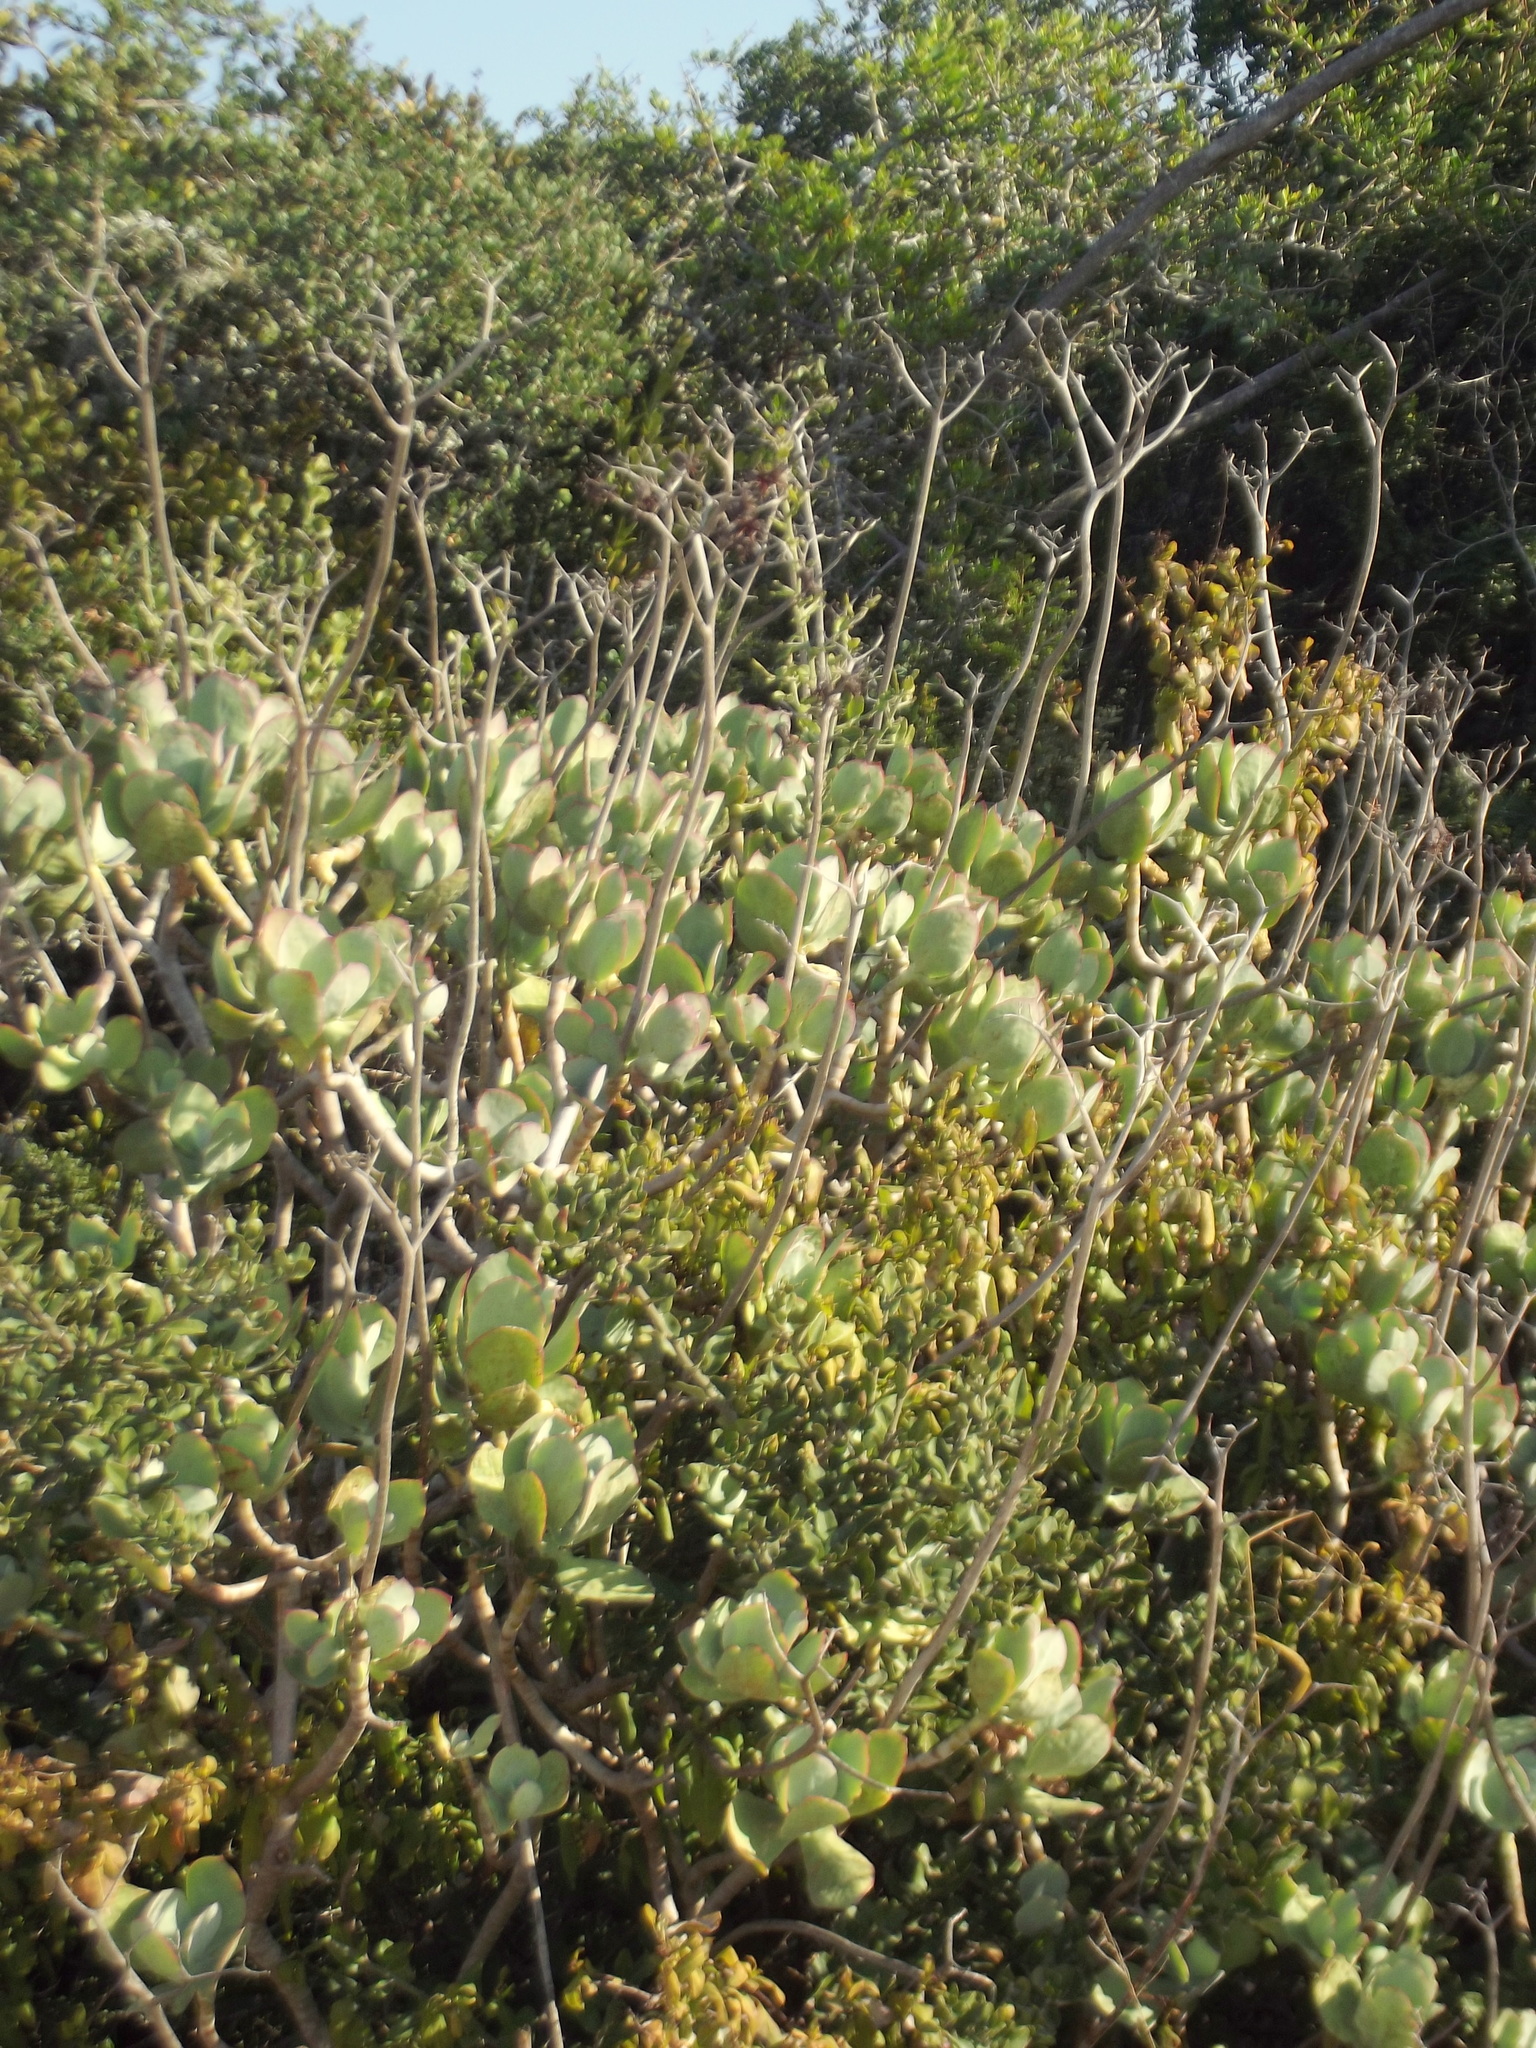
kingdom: Plantae
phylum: Tracheophyta
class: Magnoliopsida
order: Saxifragales
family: Crassulaceae
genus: Cotyledon
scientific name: Cotyledon velutina
